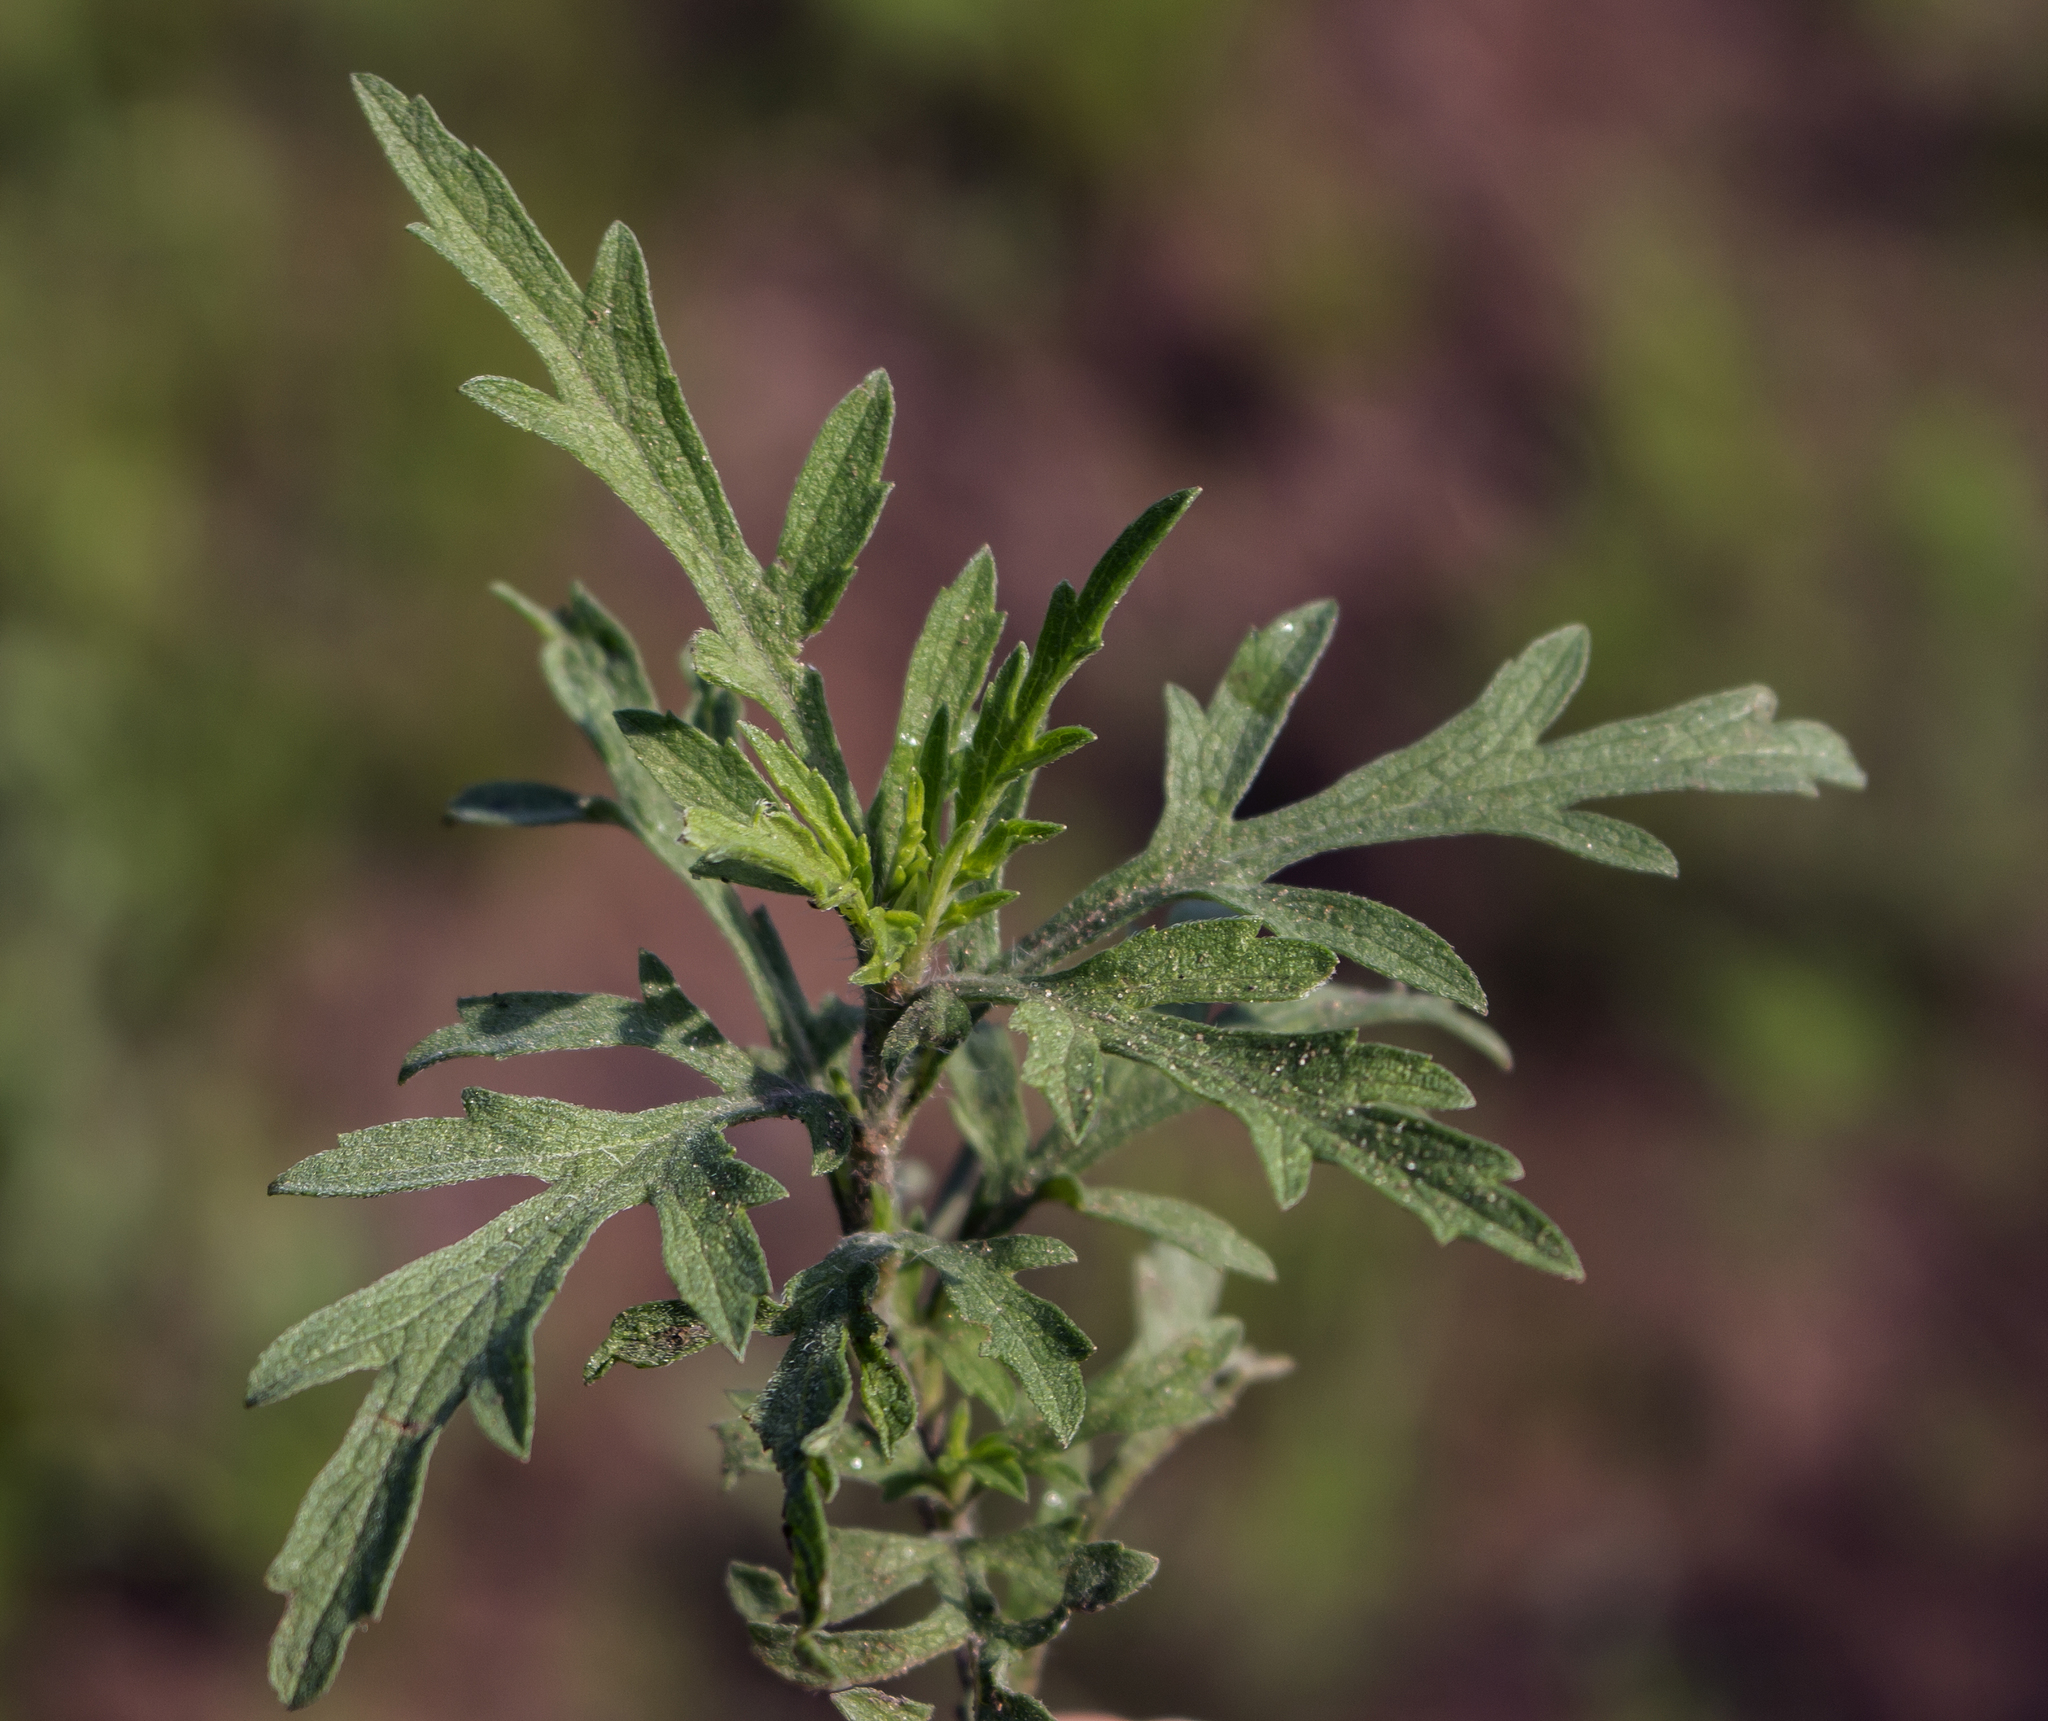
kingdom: Plantae
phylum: Tracheophyta
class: Magnoliopsida
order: Asterales
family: Asteraceae
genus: Ambrosia
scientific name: Ambrosia psilostachya
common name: Perennial ragweed
